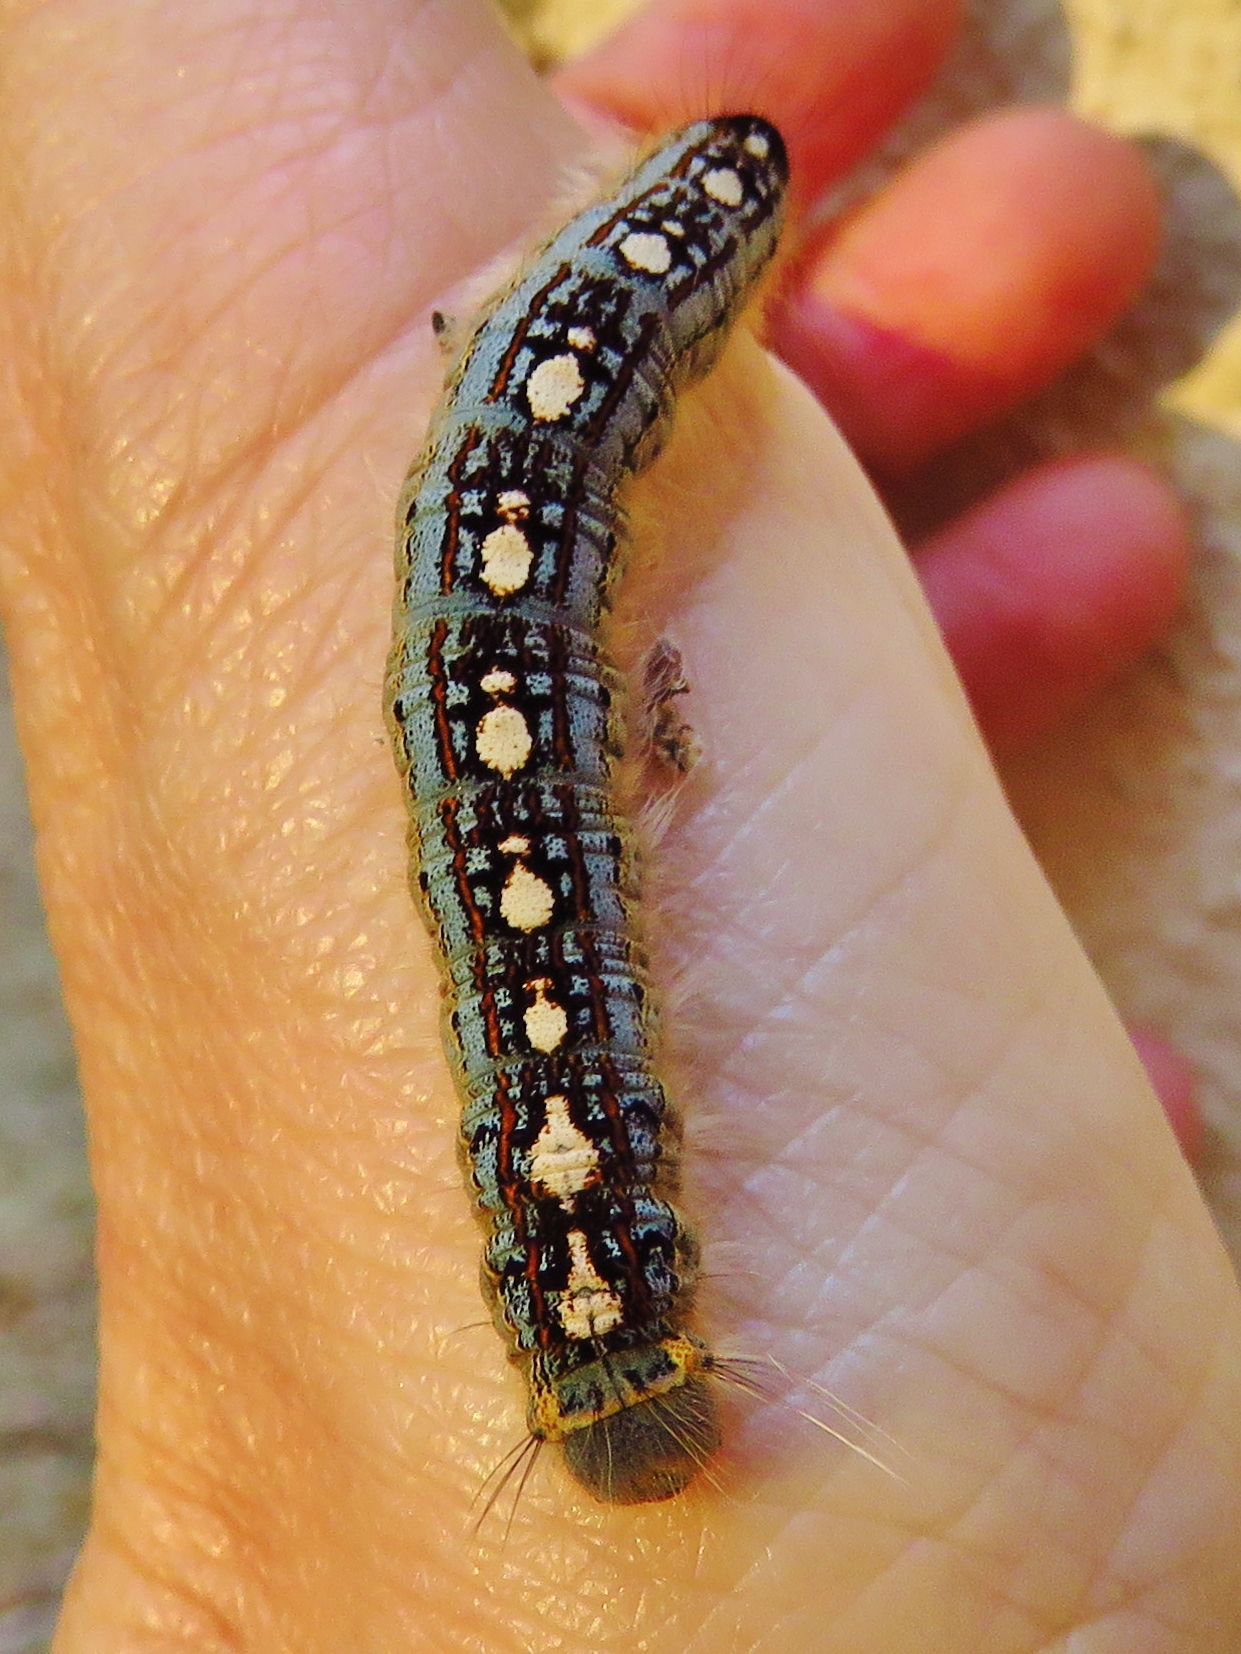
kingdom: Animalia
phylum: Arthropoda
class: Insecta
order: Lepidoptera
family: Lasiocampidae
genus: Malacosoma
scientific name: Malacosoma disstria
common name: Forest tent caterpillar
